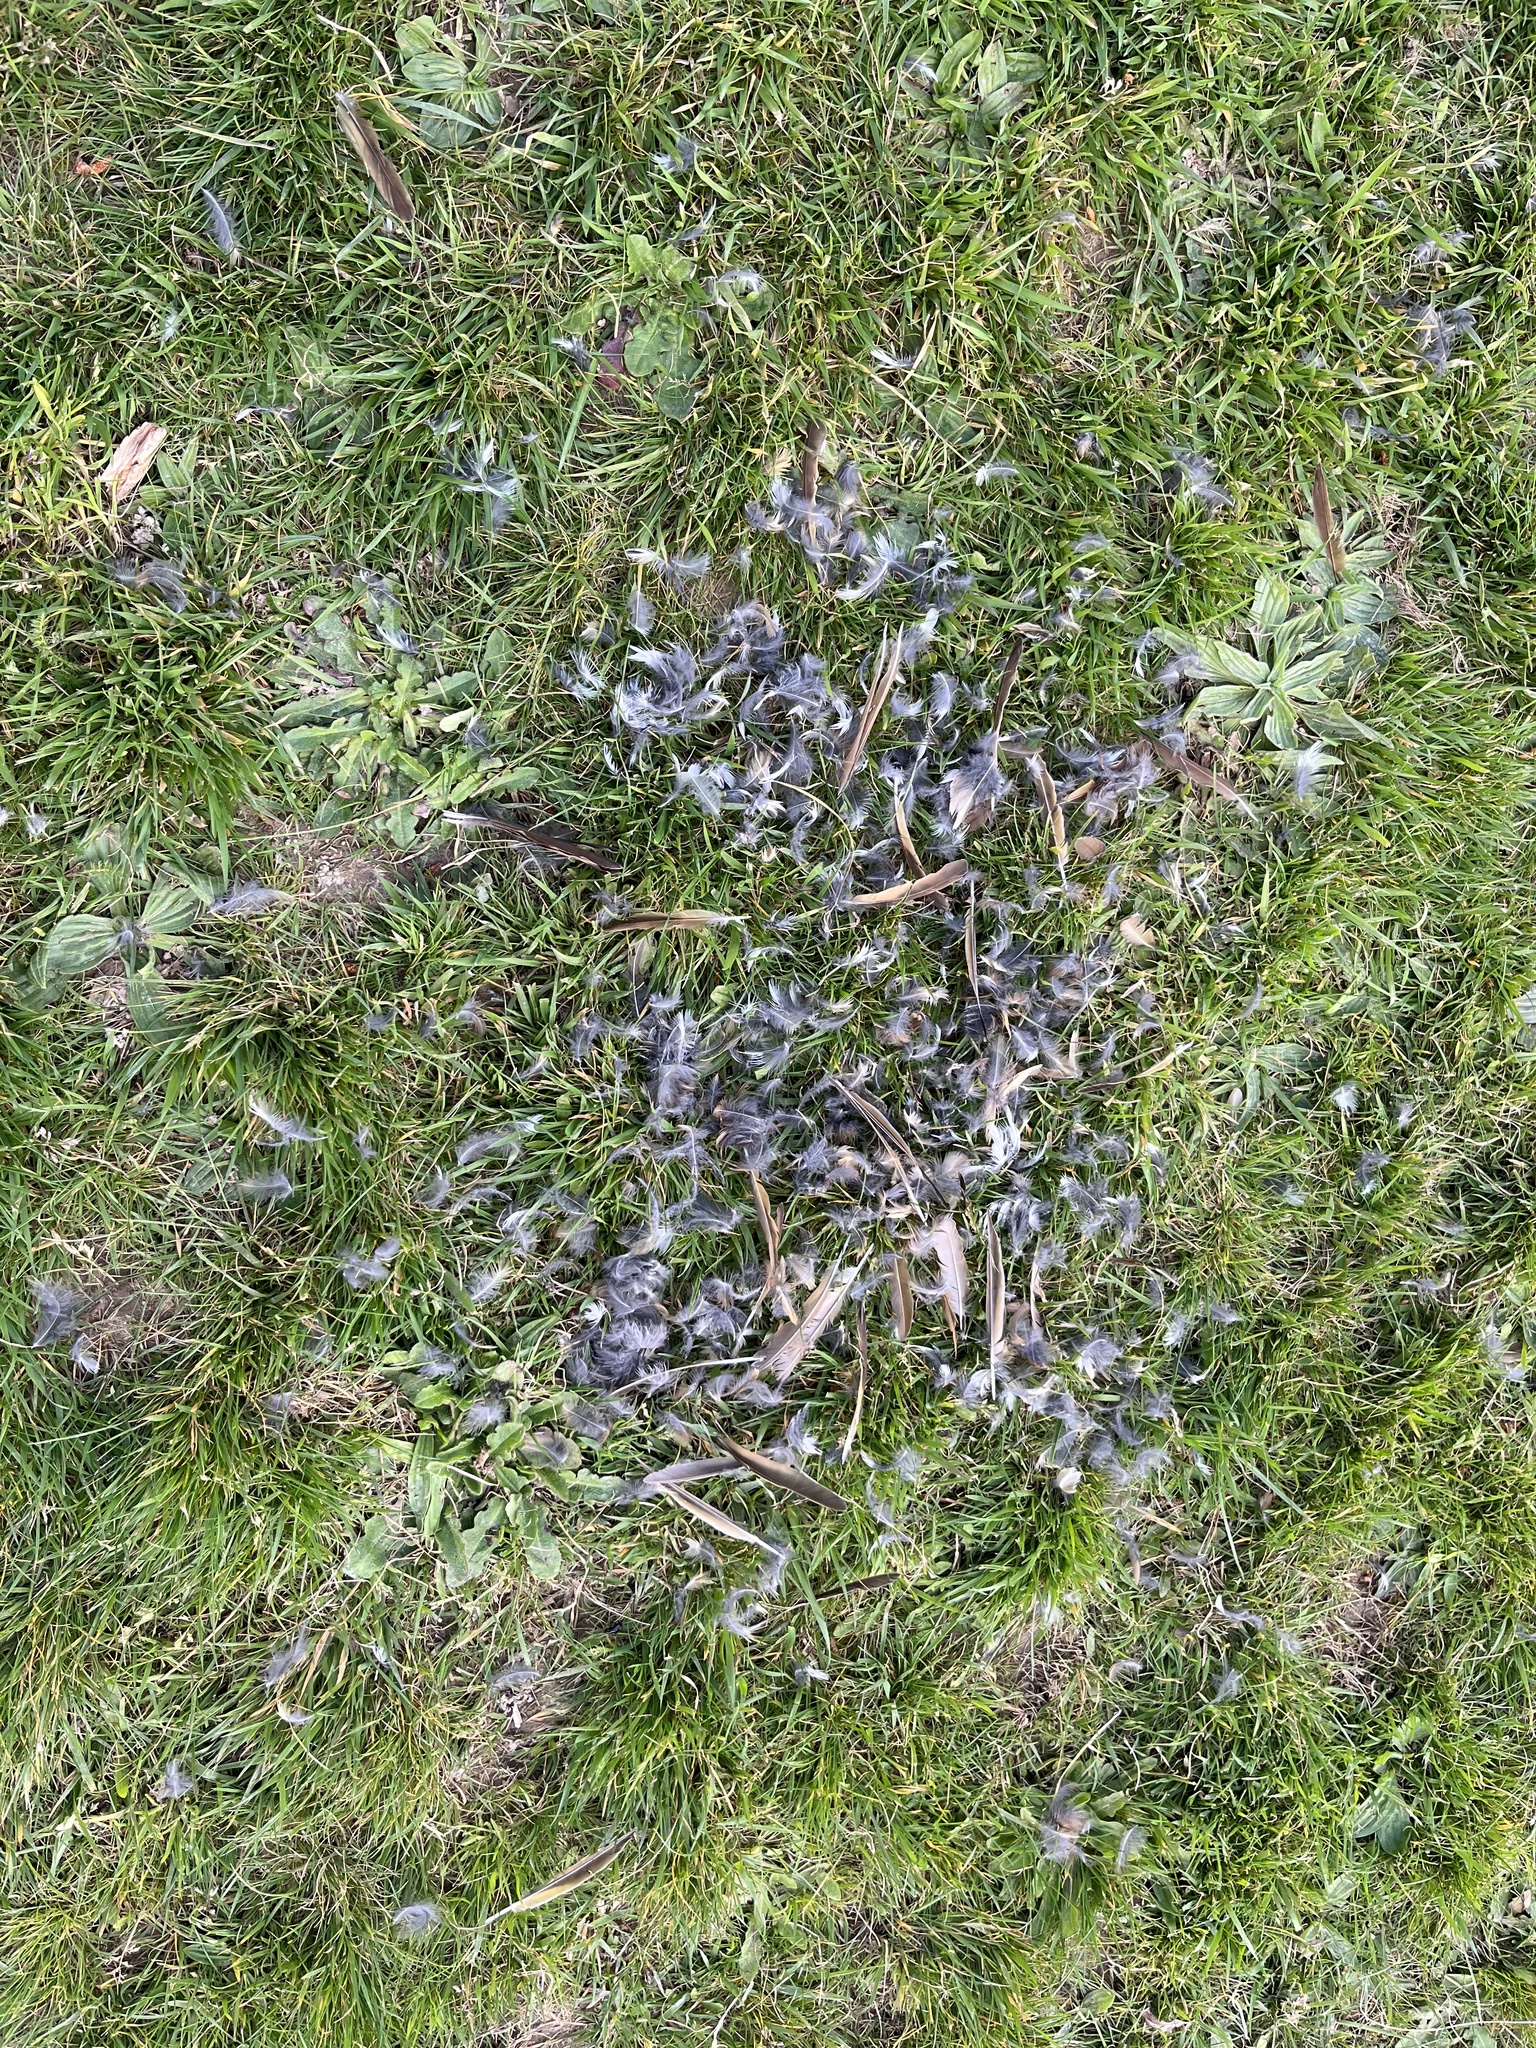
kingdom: Animalia
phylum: Chordata
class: Aves
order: Falconiformes
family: Falconidae
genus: Falco
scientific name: Falco novaeseelandiae
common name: New zealand falcon
